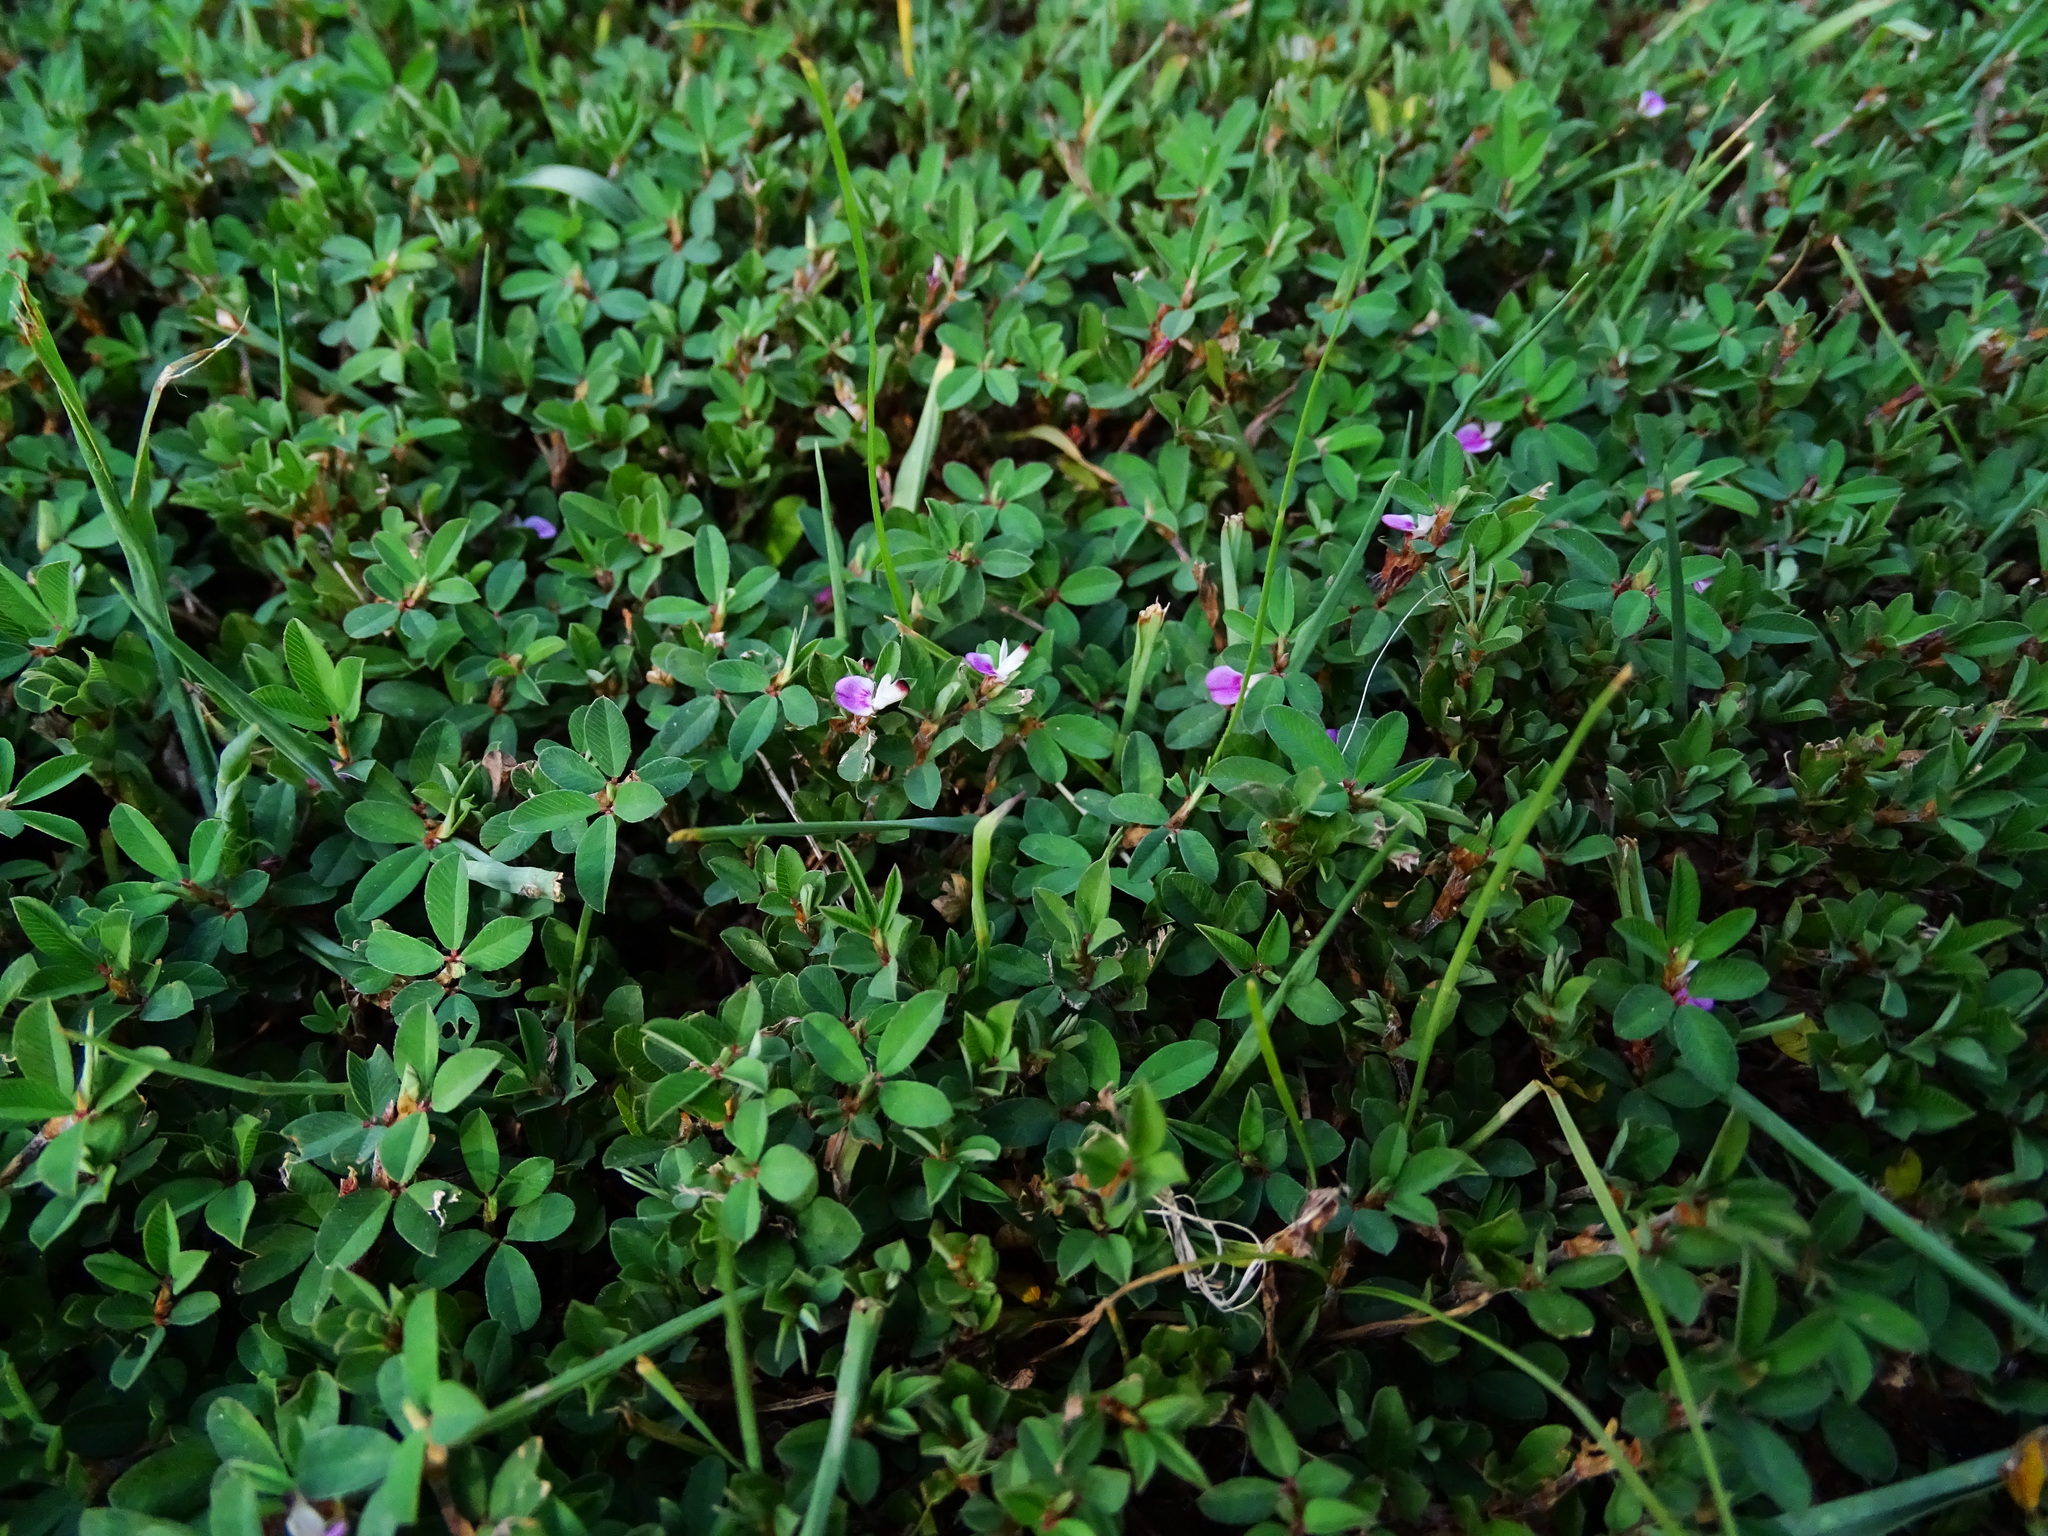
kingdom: Plantae
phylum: Tracheophyta
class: Magnoliopsida
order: Fabales
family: Fabaceae
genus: Kummerowia
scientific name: Kummerowia striata
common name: Japanese clover
